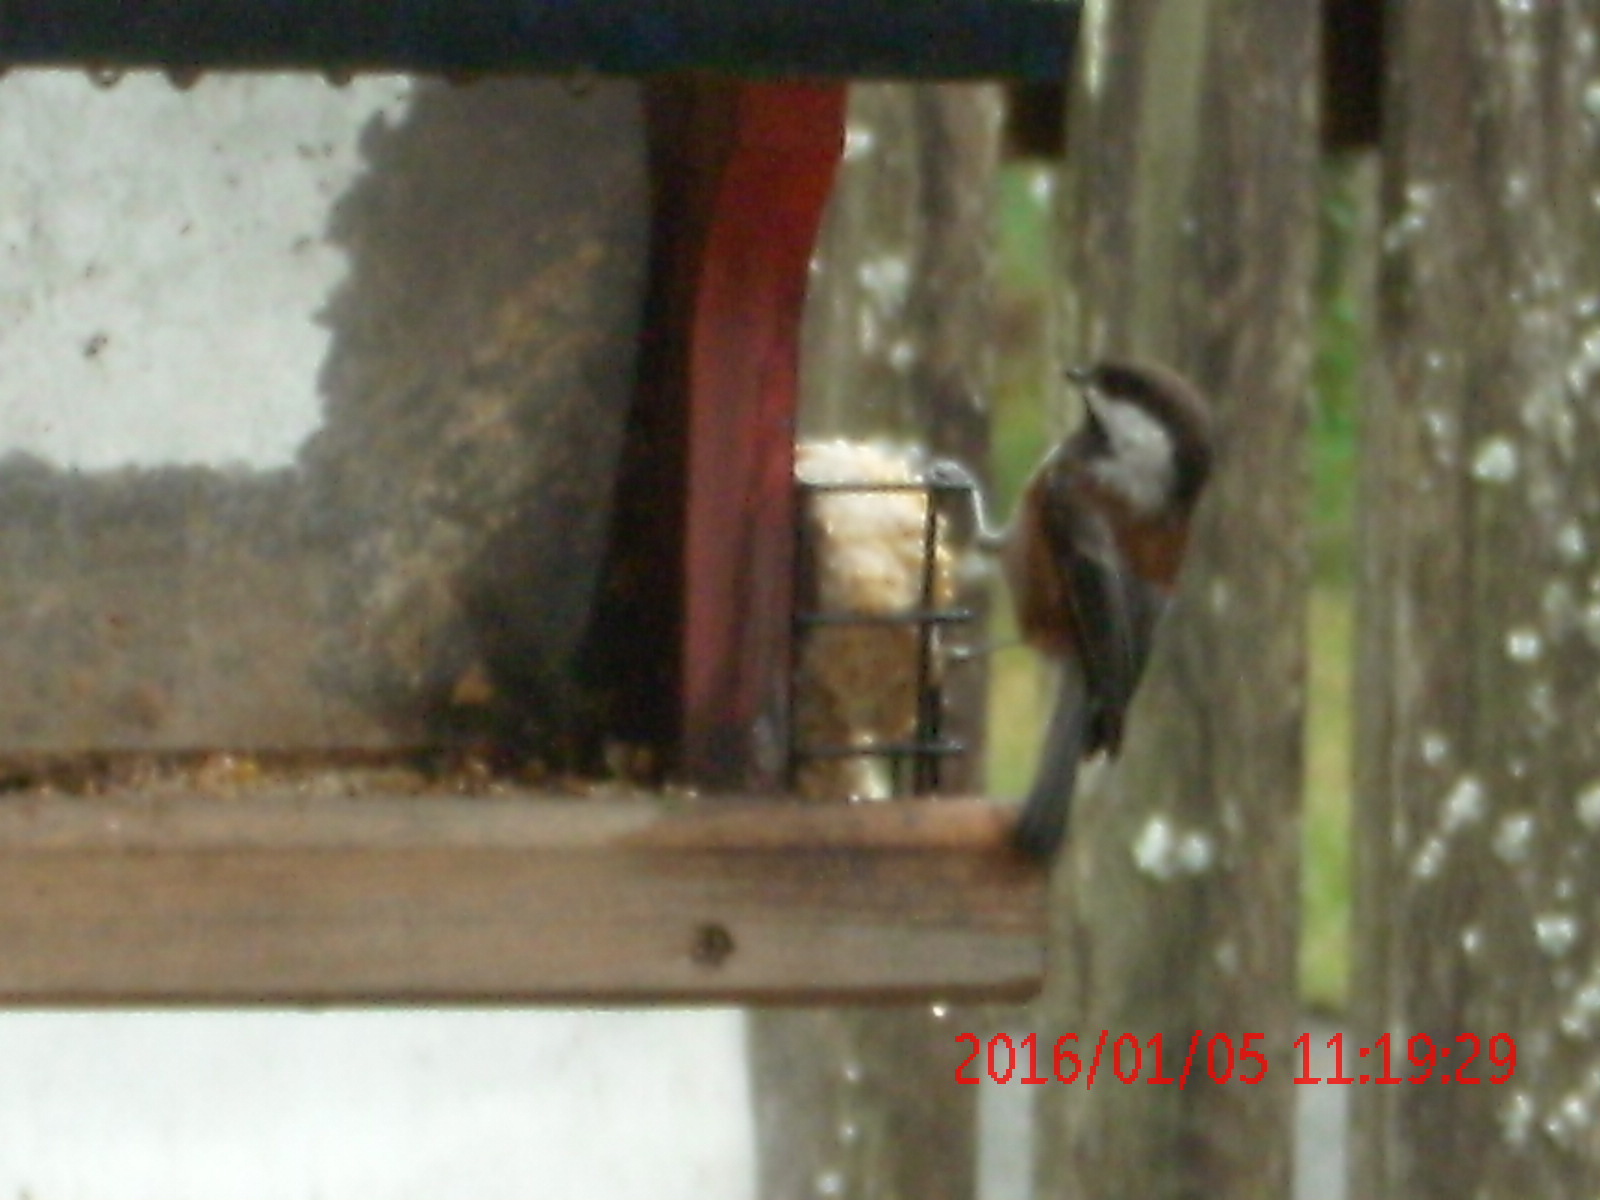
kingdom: Animalia
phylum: Chordata
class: Aves
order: Passeriformes
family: Paridae
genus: Poecile
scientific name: Poecile rufescens
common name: Chestnut-backed chickadee
